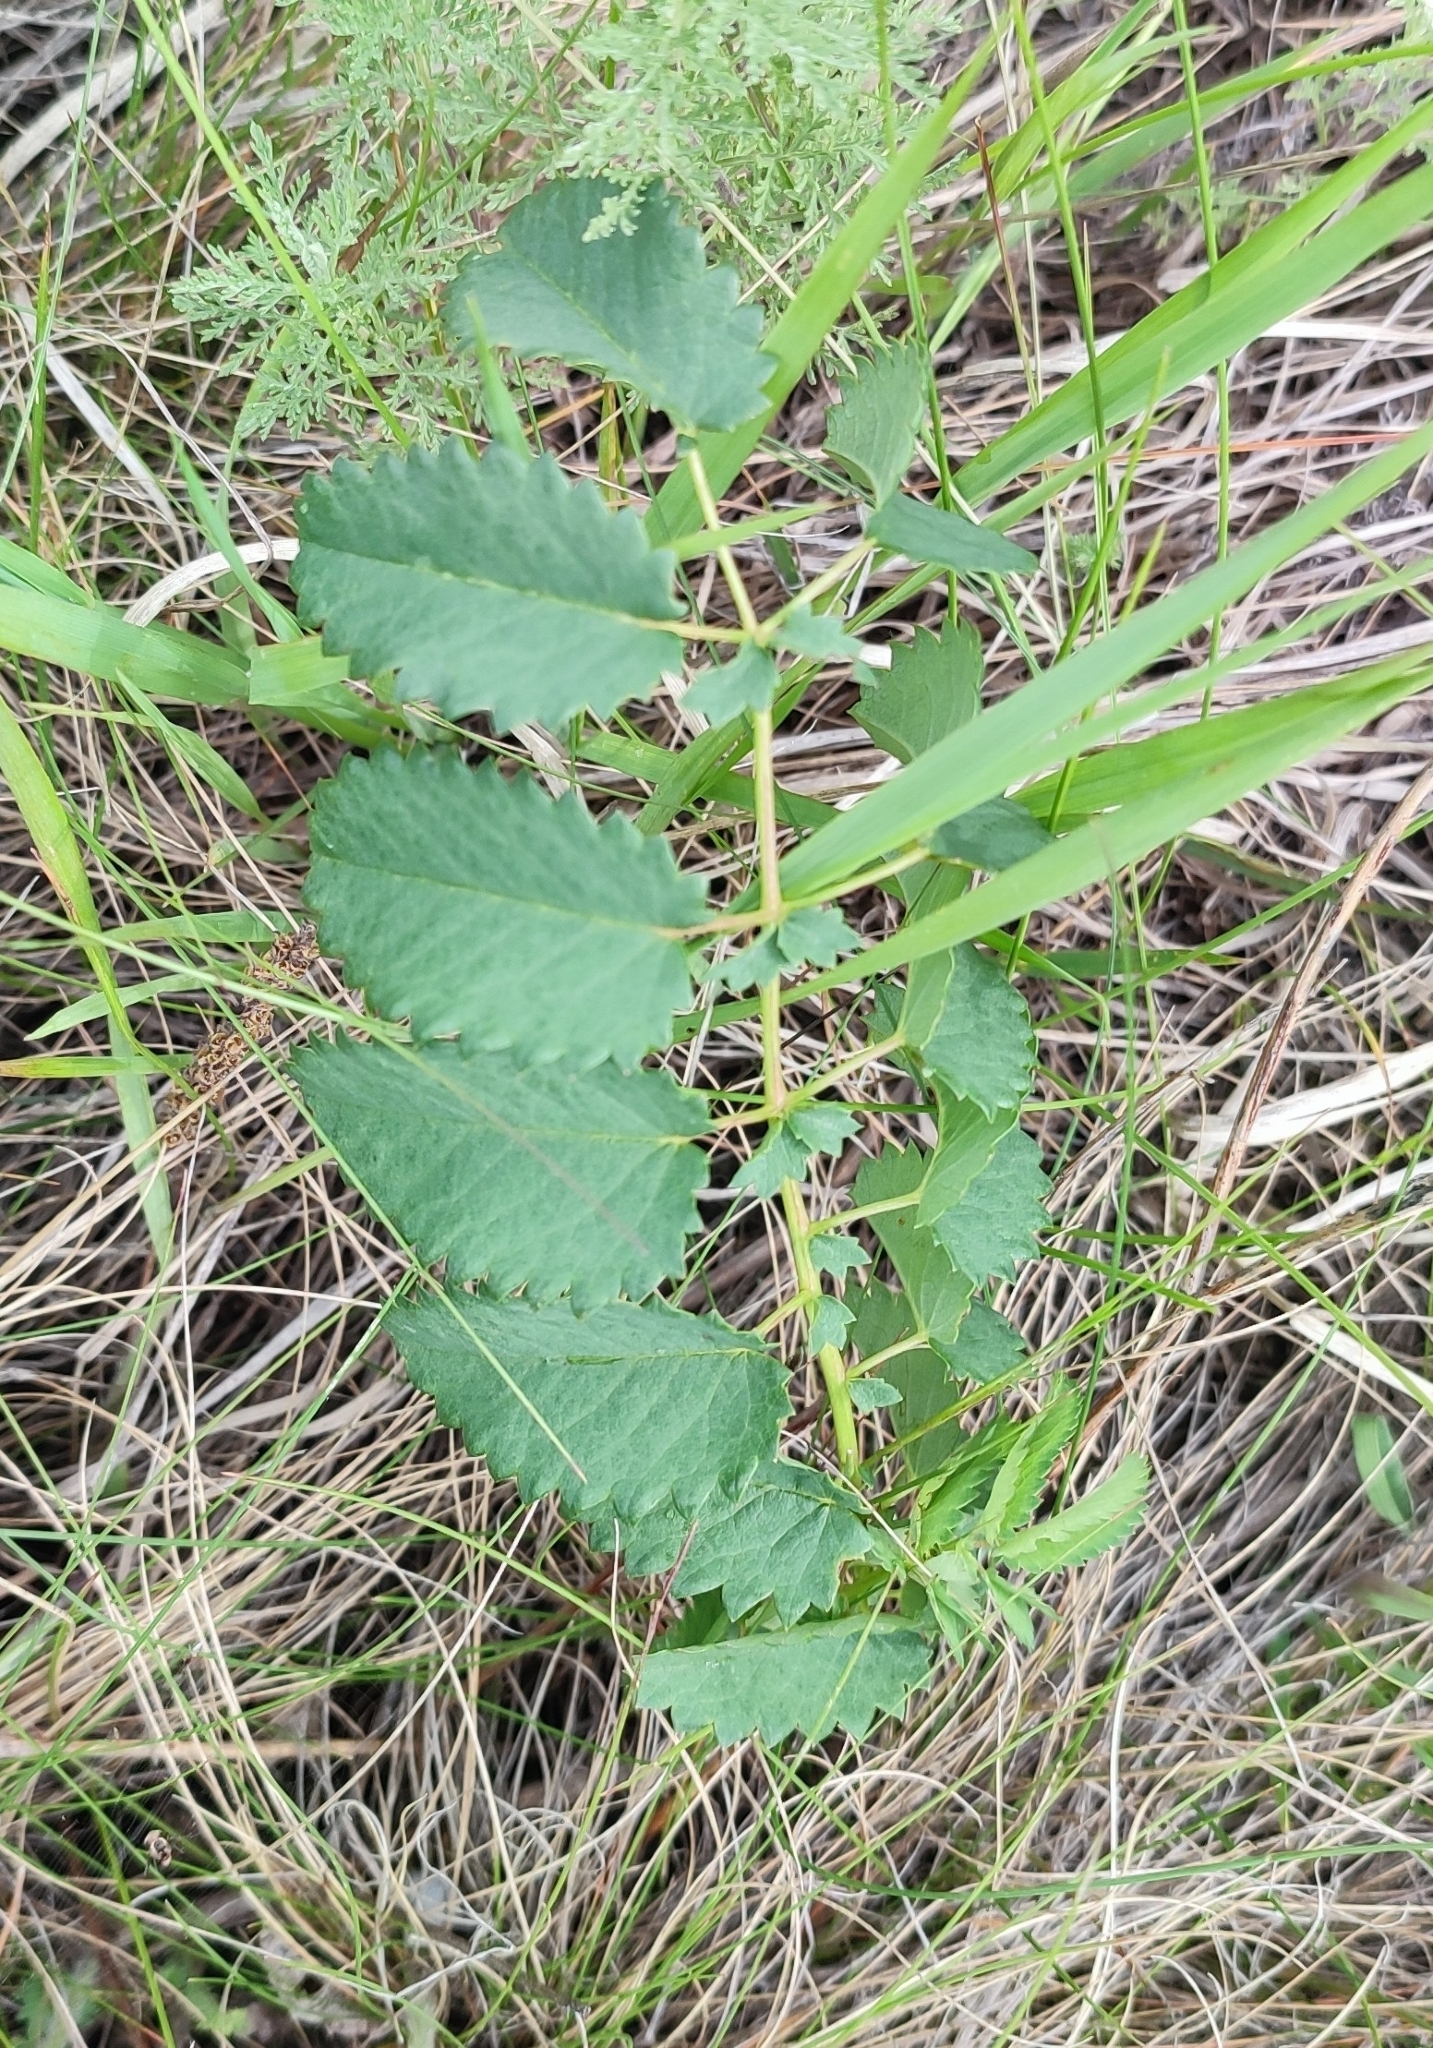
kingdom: Plantae
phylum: Tracheophyta
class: Magnoliopsida
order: Rosales
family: Rosaceae
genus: Sanguisorba
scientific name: Sanguisorba officinalis
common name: Great burnet
